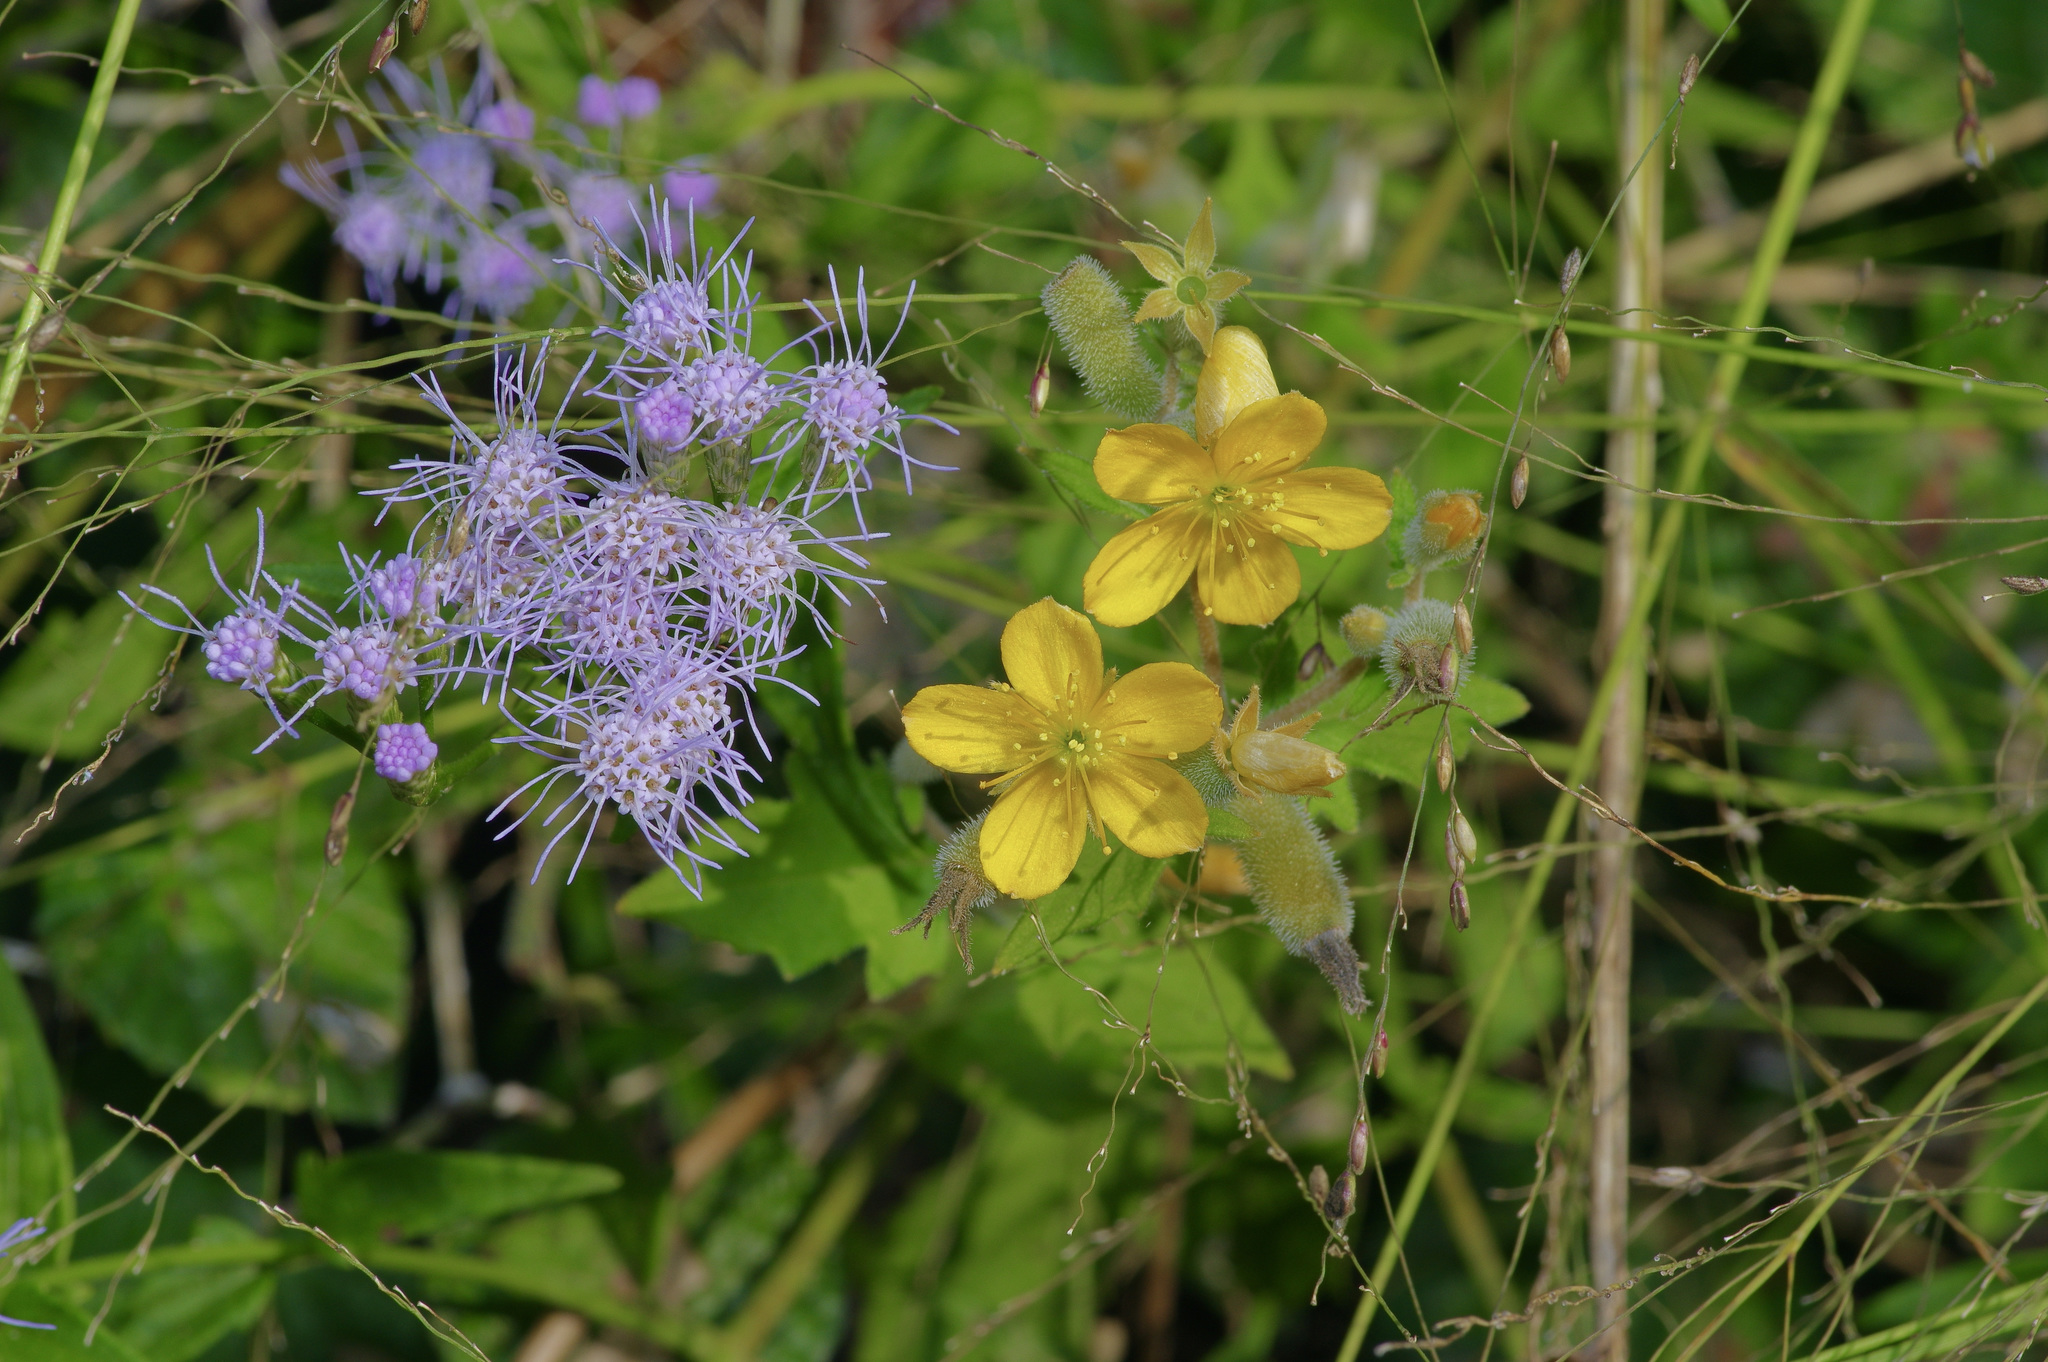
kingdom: Plantae
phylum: Tracheophyta
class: Magnoliopsida
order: Cornales
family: Loasaceae
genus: Mentzelia
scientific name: Mentzelia oligosperma
